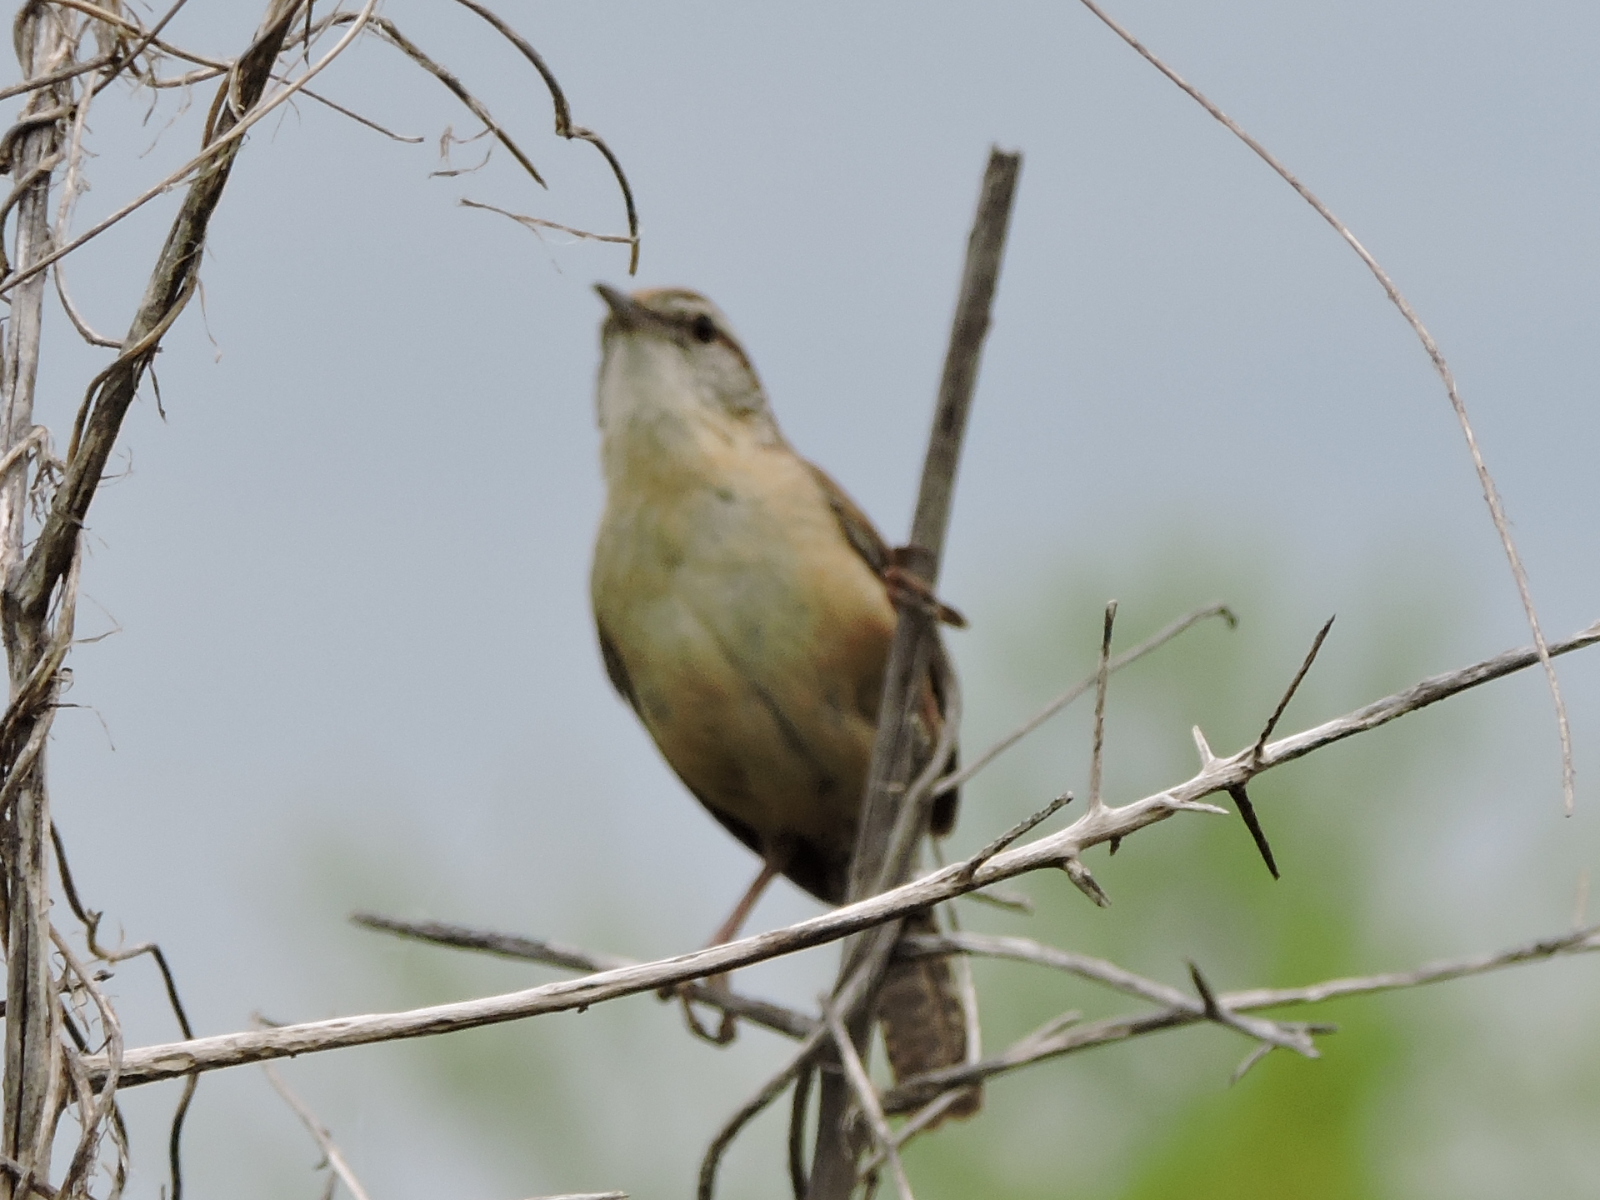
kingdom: Animalia
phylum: Chordata
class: Aves
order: Passeriformes
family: Troglodytidae
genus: Thryothorus
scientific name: Thryothorus ludovicianus
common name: Carolina wren
